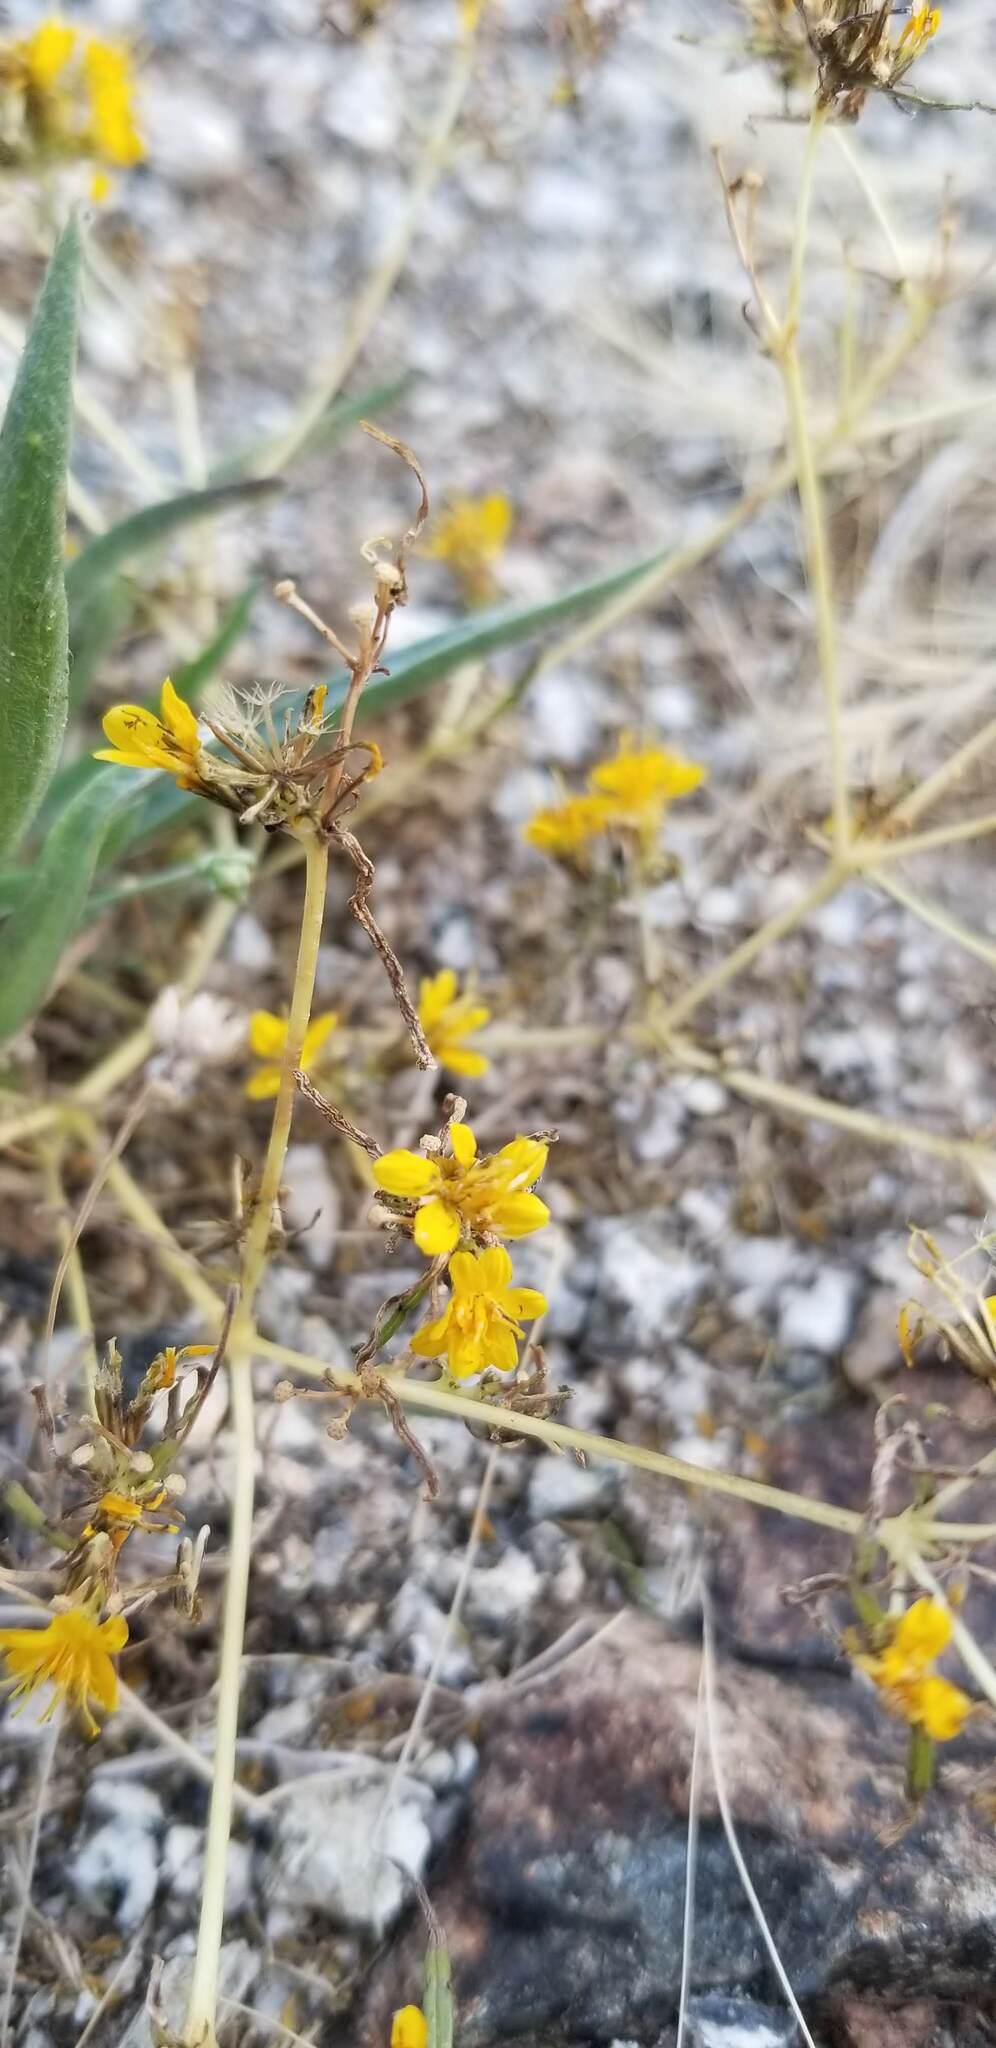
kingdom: Plantae
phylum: Tracheophyta
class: Magnoliopsida
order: Asterales
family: Asteraceae
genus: Pectis
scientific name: Pectis papposa
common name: Many-bristle chinchweed
